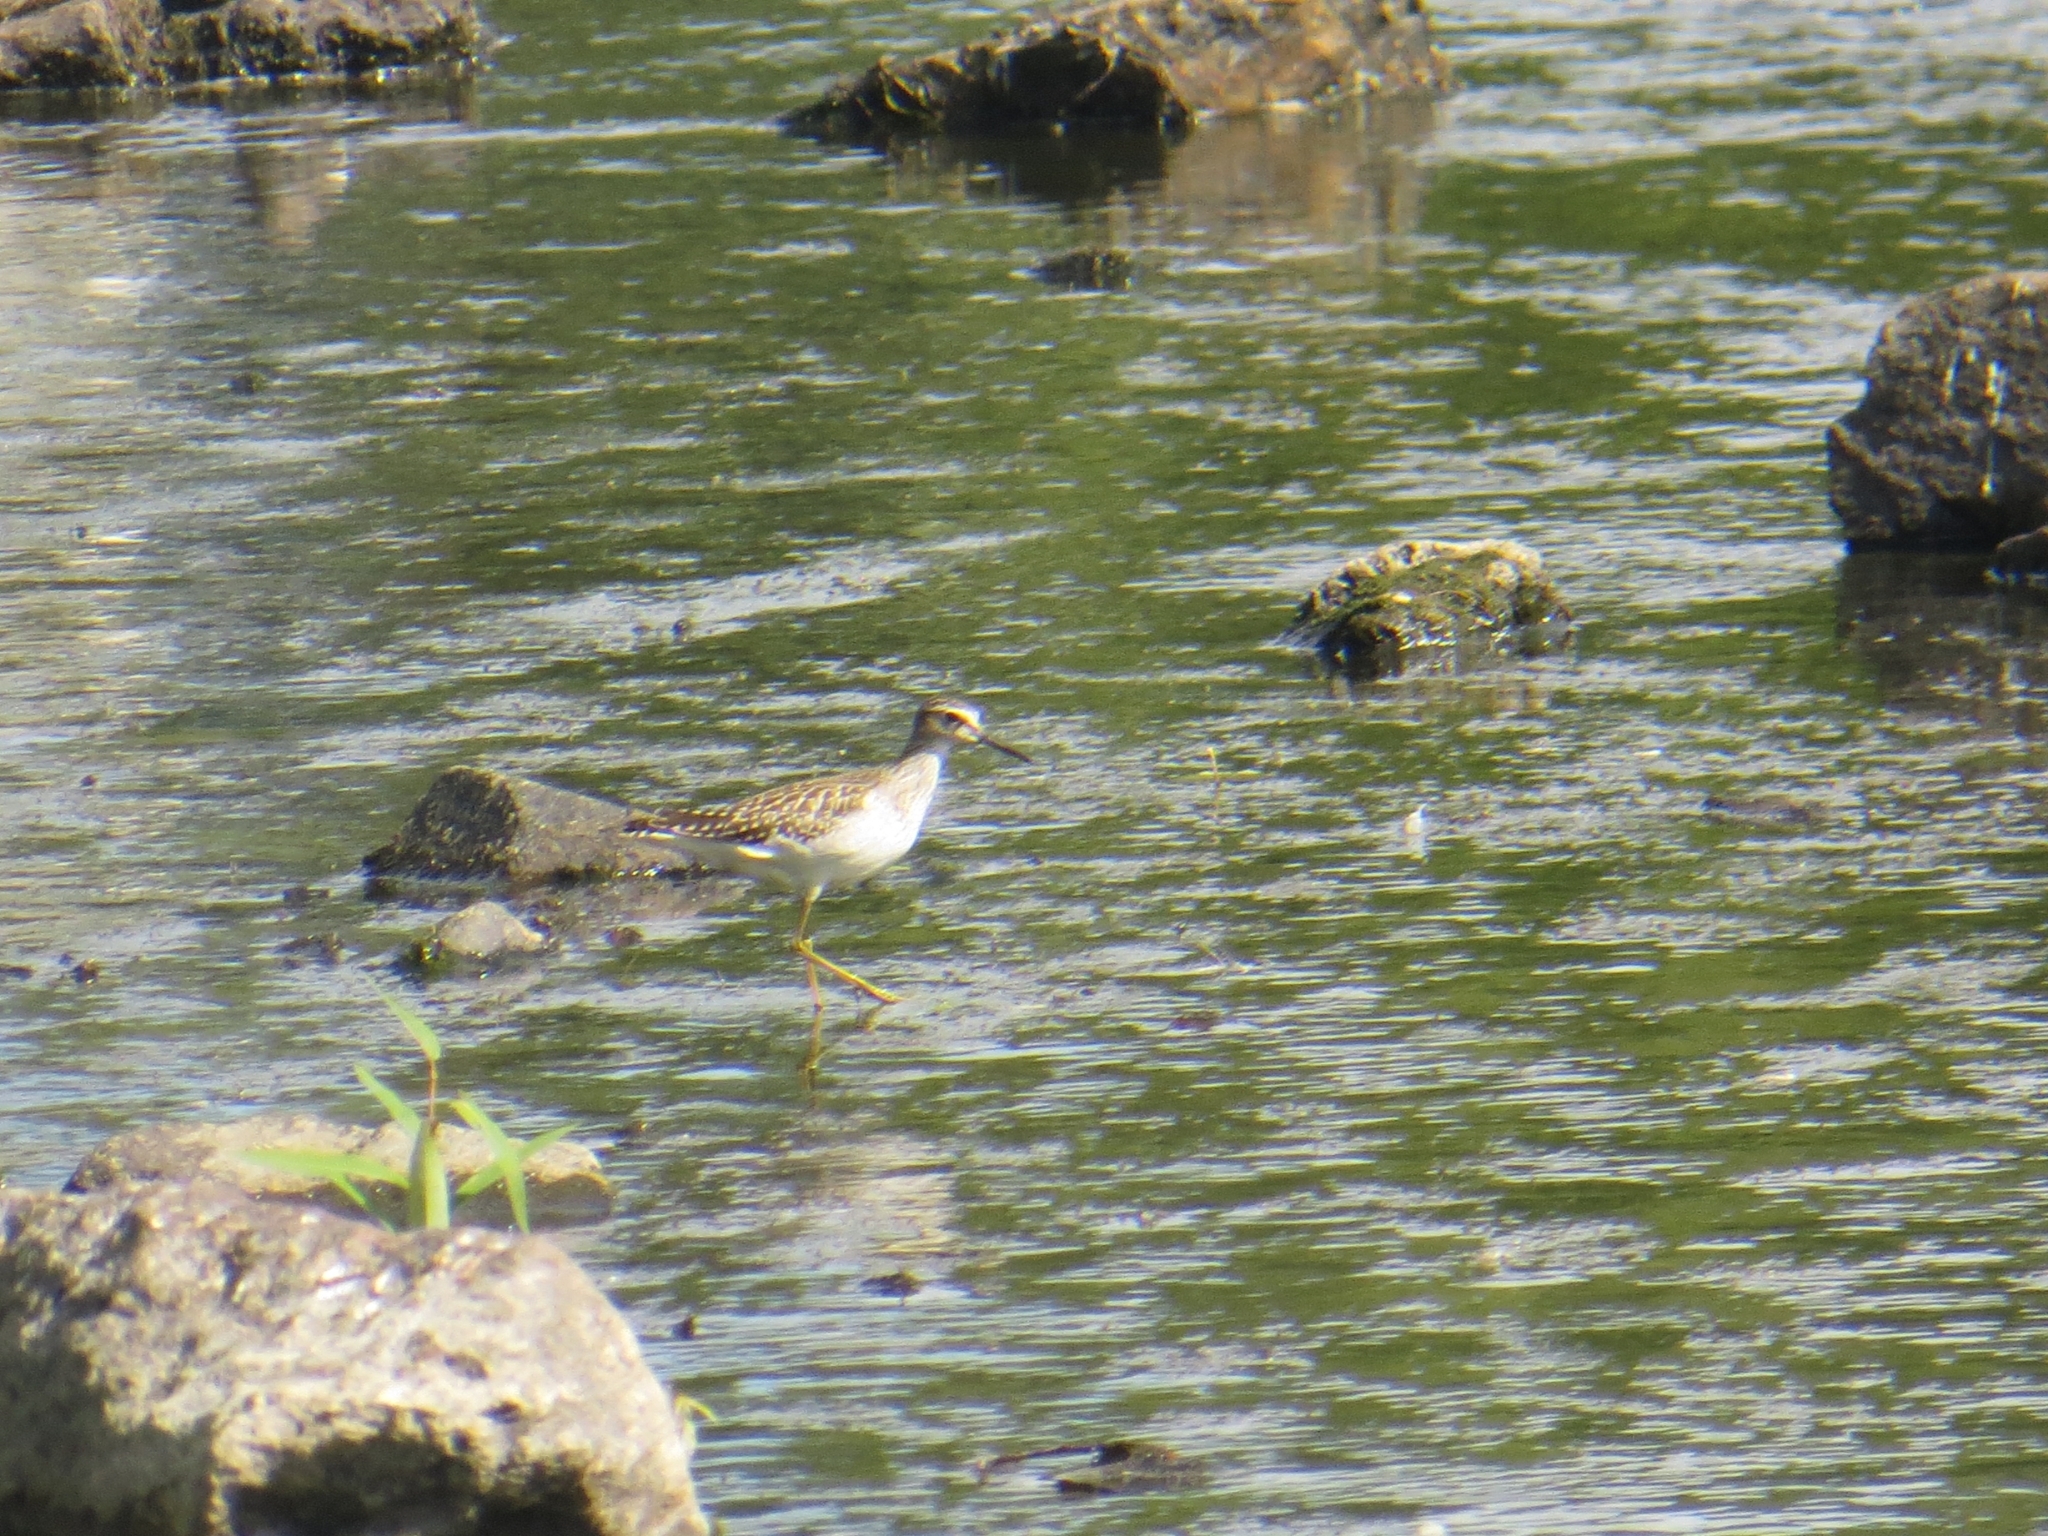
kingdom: Animalia
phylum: Chordata
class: Aves
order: Charadriiformes
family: Scolopacidae
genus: Tringa
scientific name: Tringa glareola
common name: Wood sandpiper
